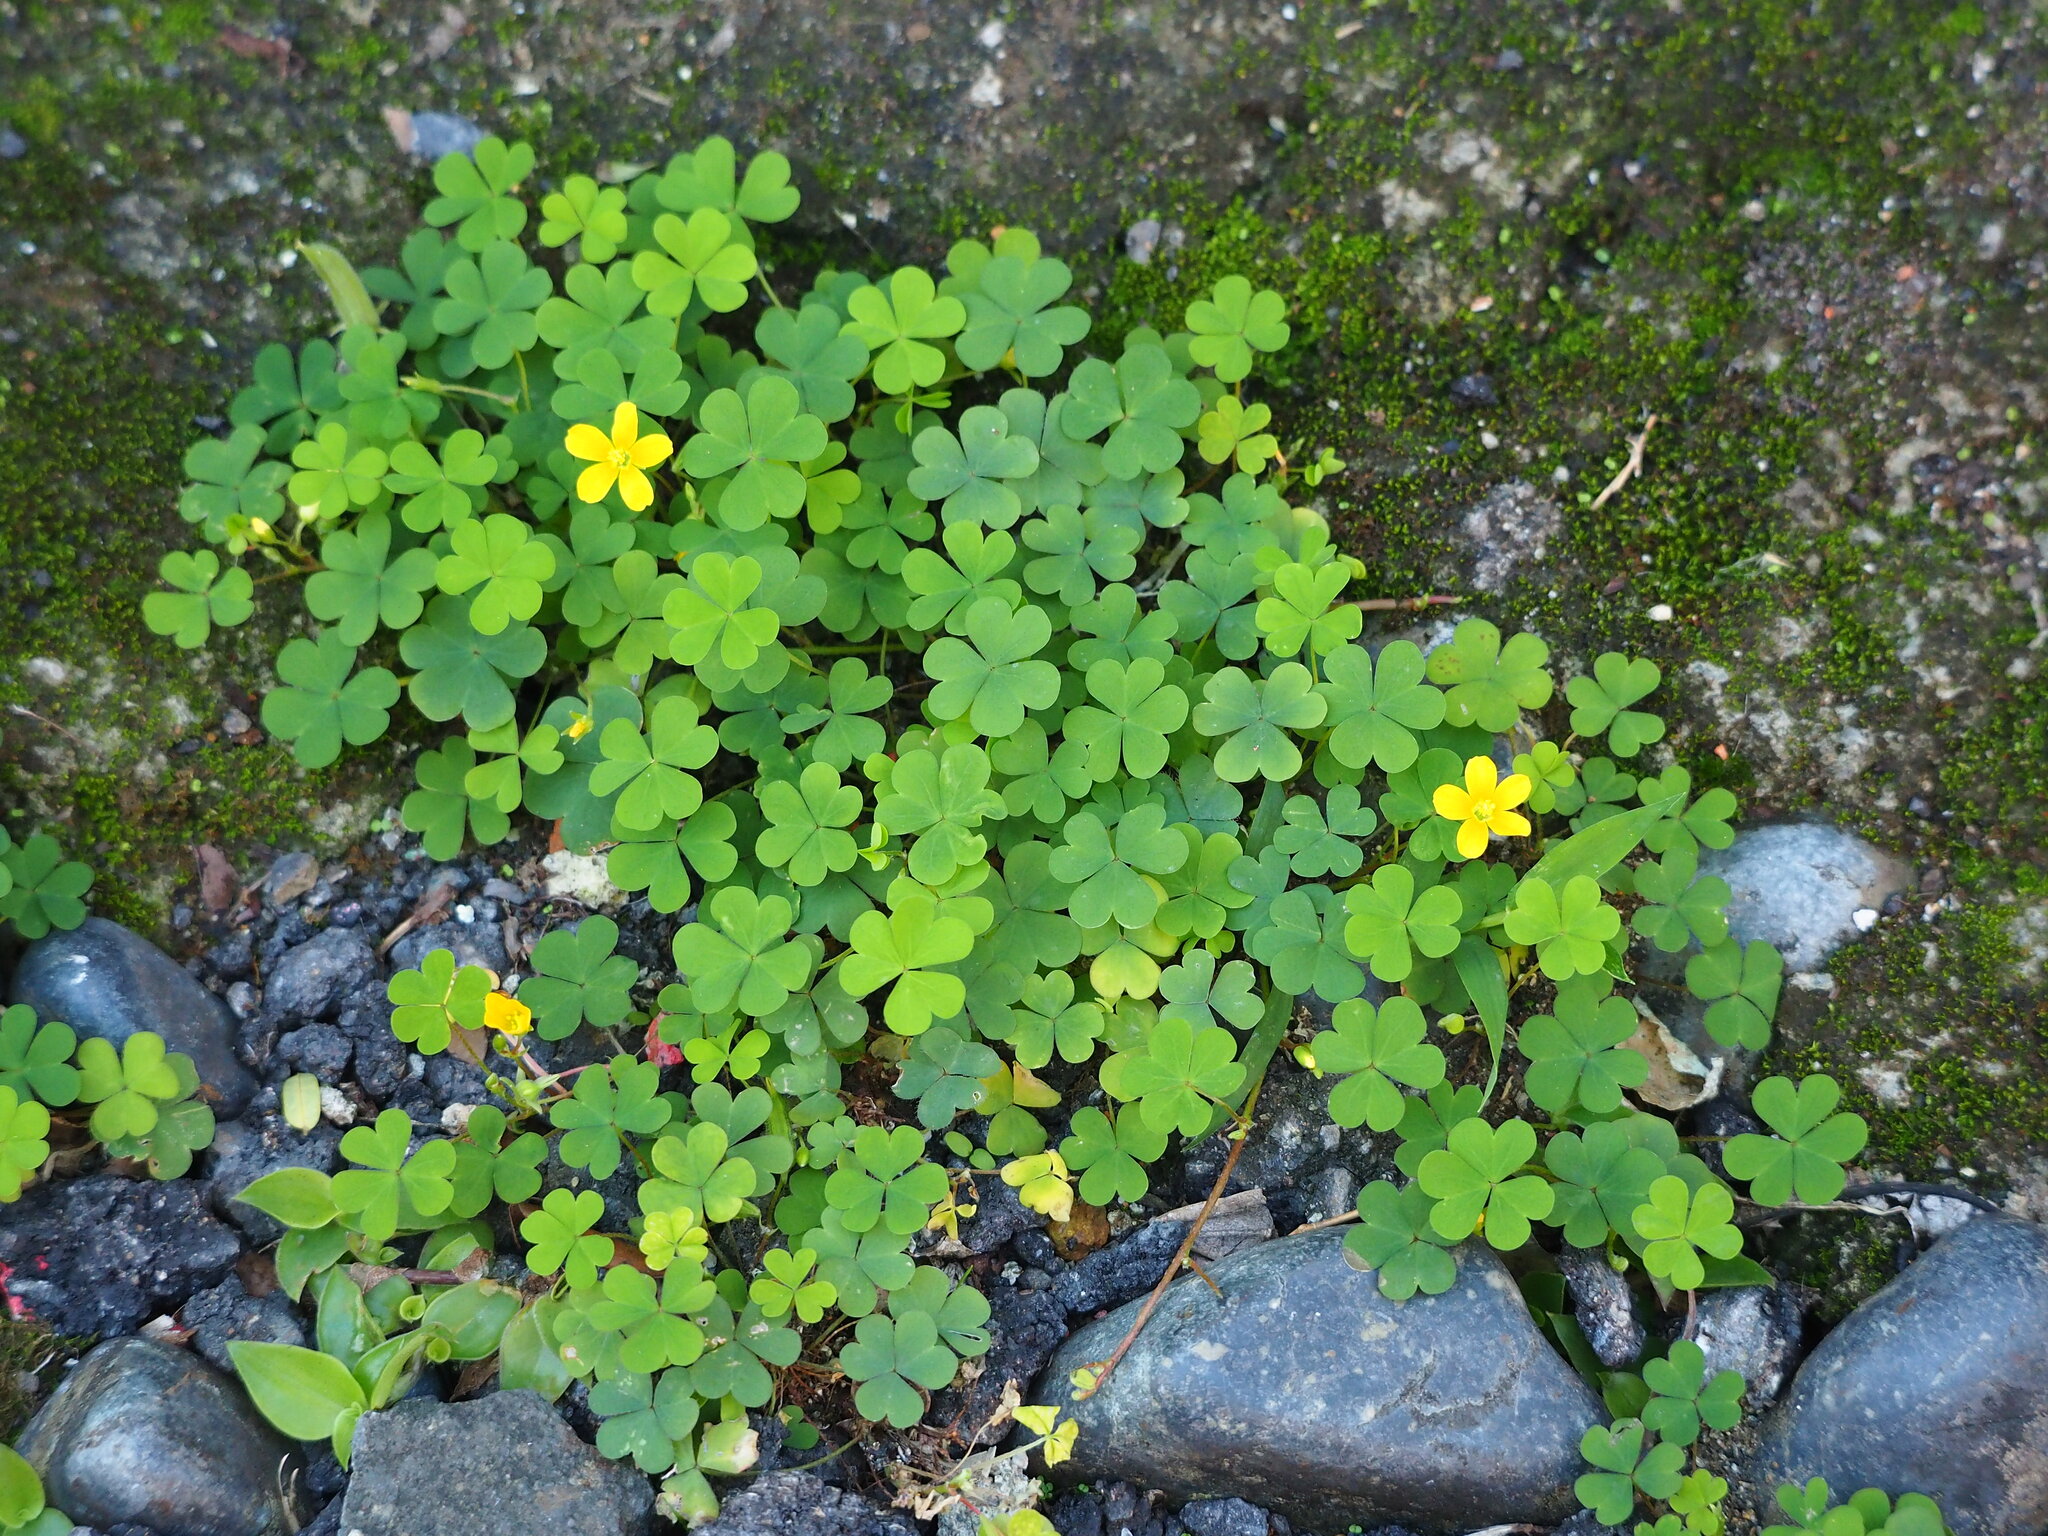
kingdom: Plantae
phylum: Tracheophyta
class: Magnoliopsida
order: Oxalidales
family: Oxalidaceae
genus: Oxalis
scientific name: Oxalis corniculata
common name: Procumbent yellow-sorrel
